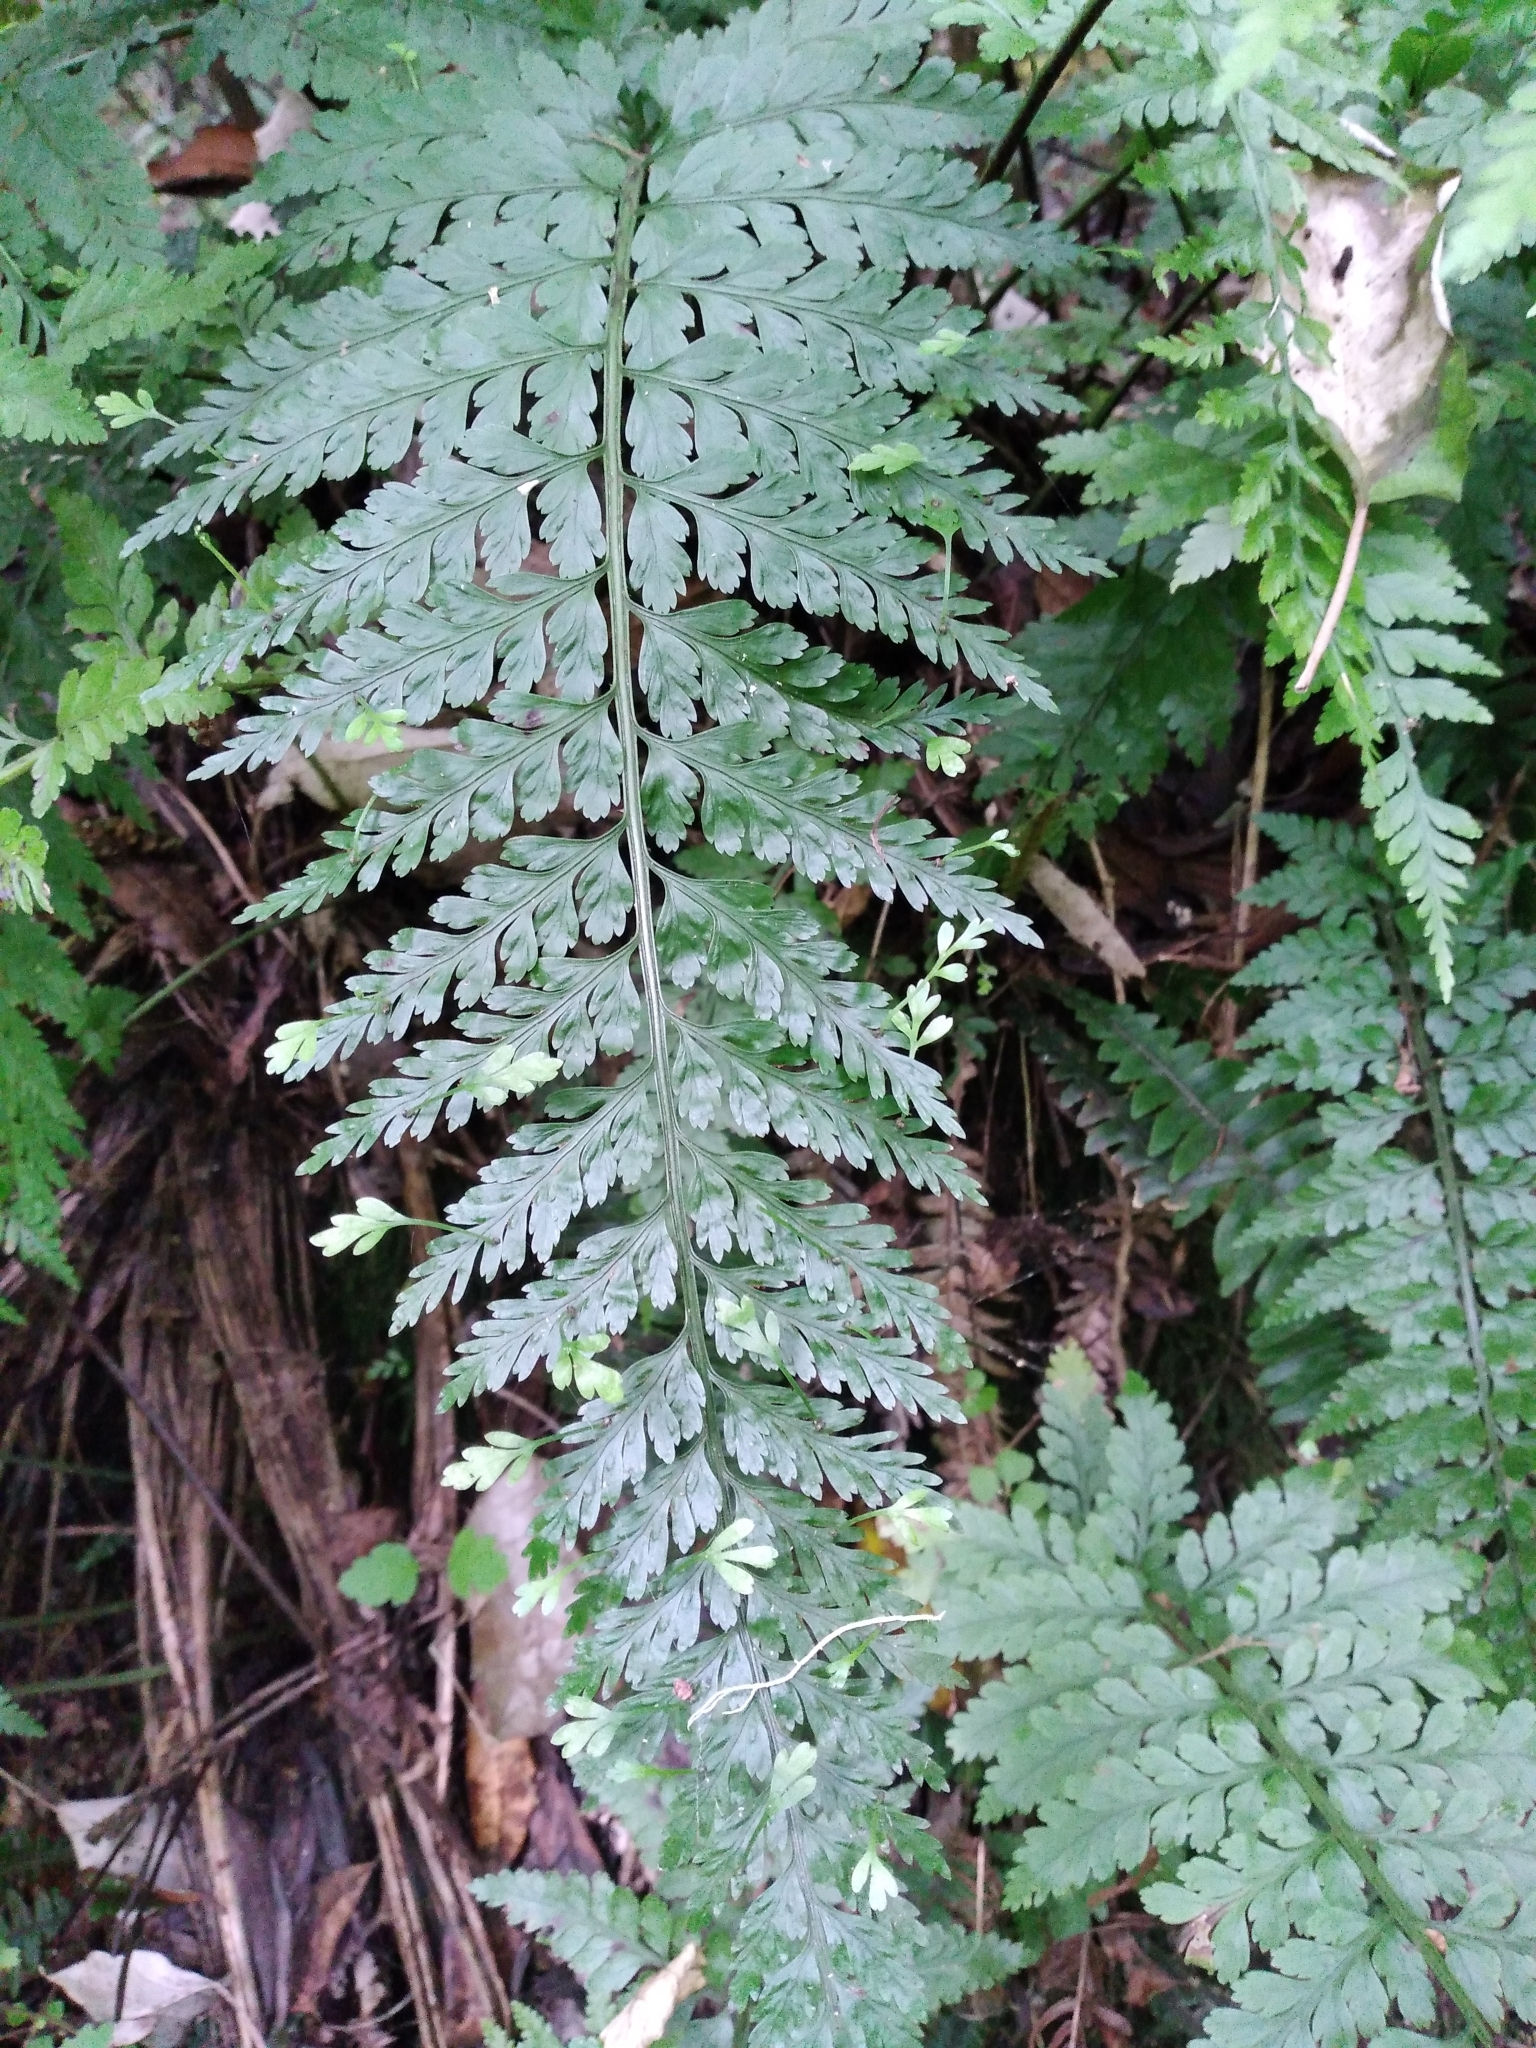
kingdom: Plantae
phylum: Tracheophyta
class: Polypodiopsida
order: Polypodiales
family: Aspleniaceae
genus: Asplenium
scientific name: Asplenium bulbiferum
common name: Mother fern
